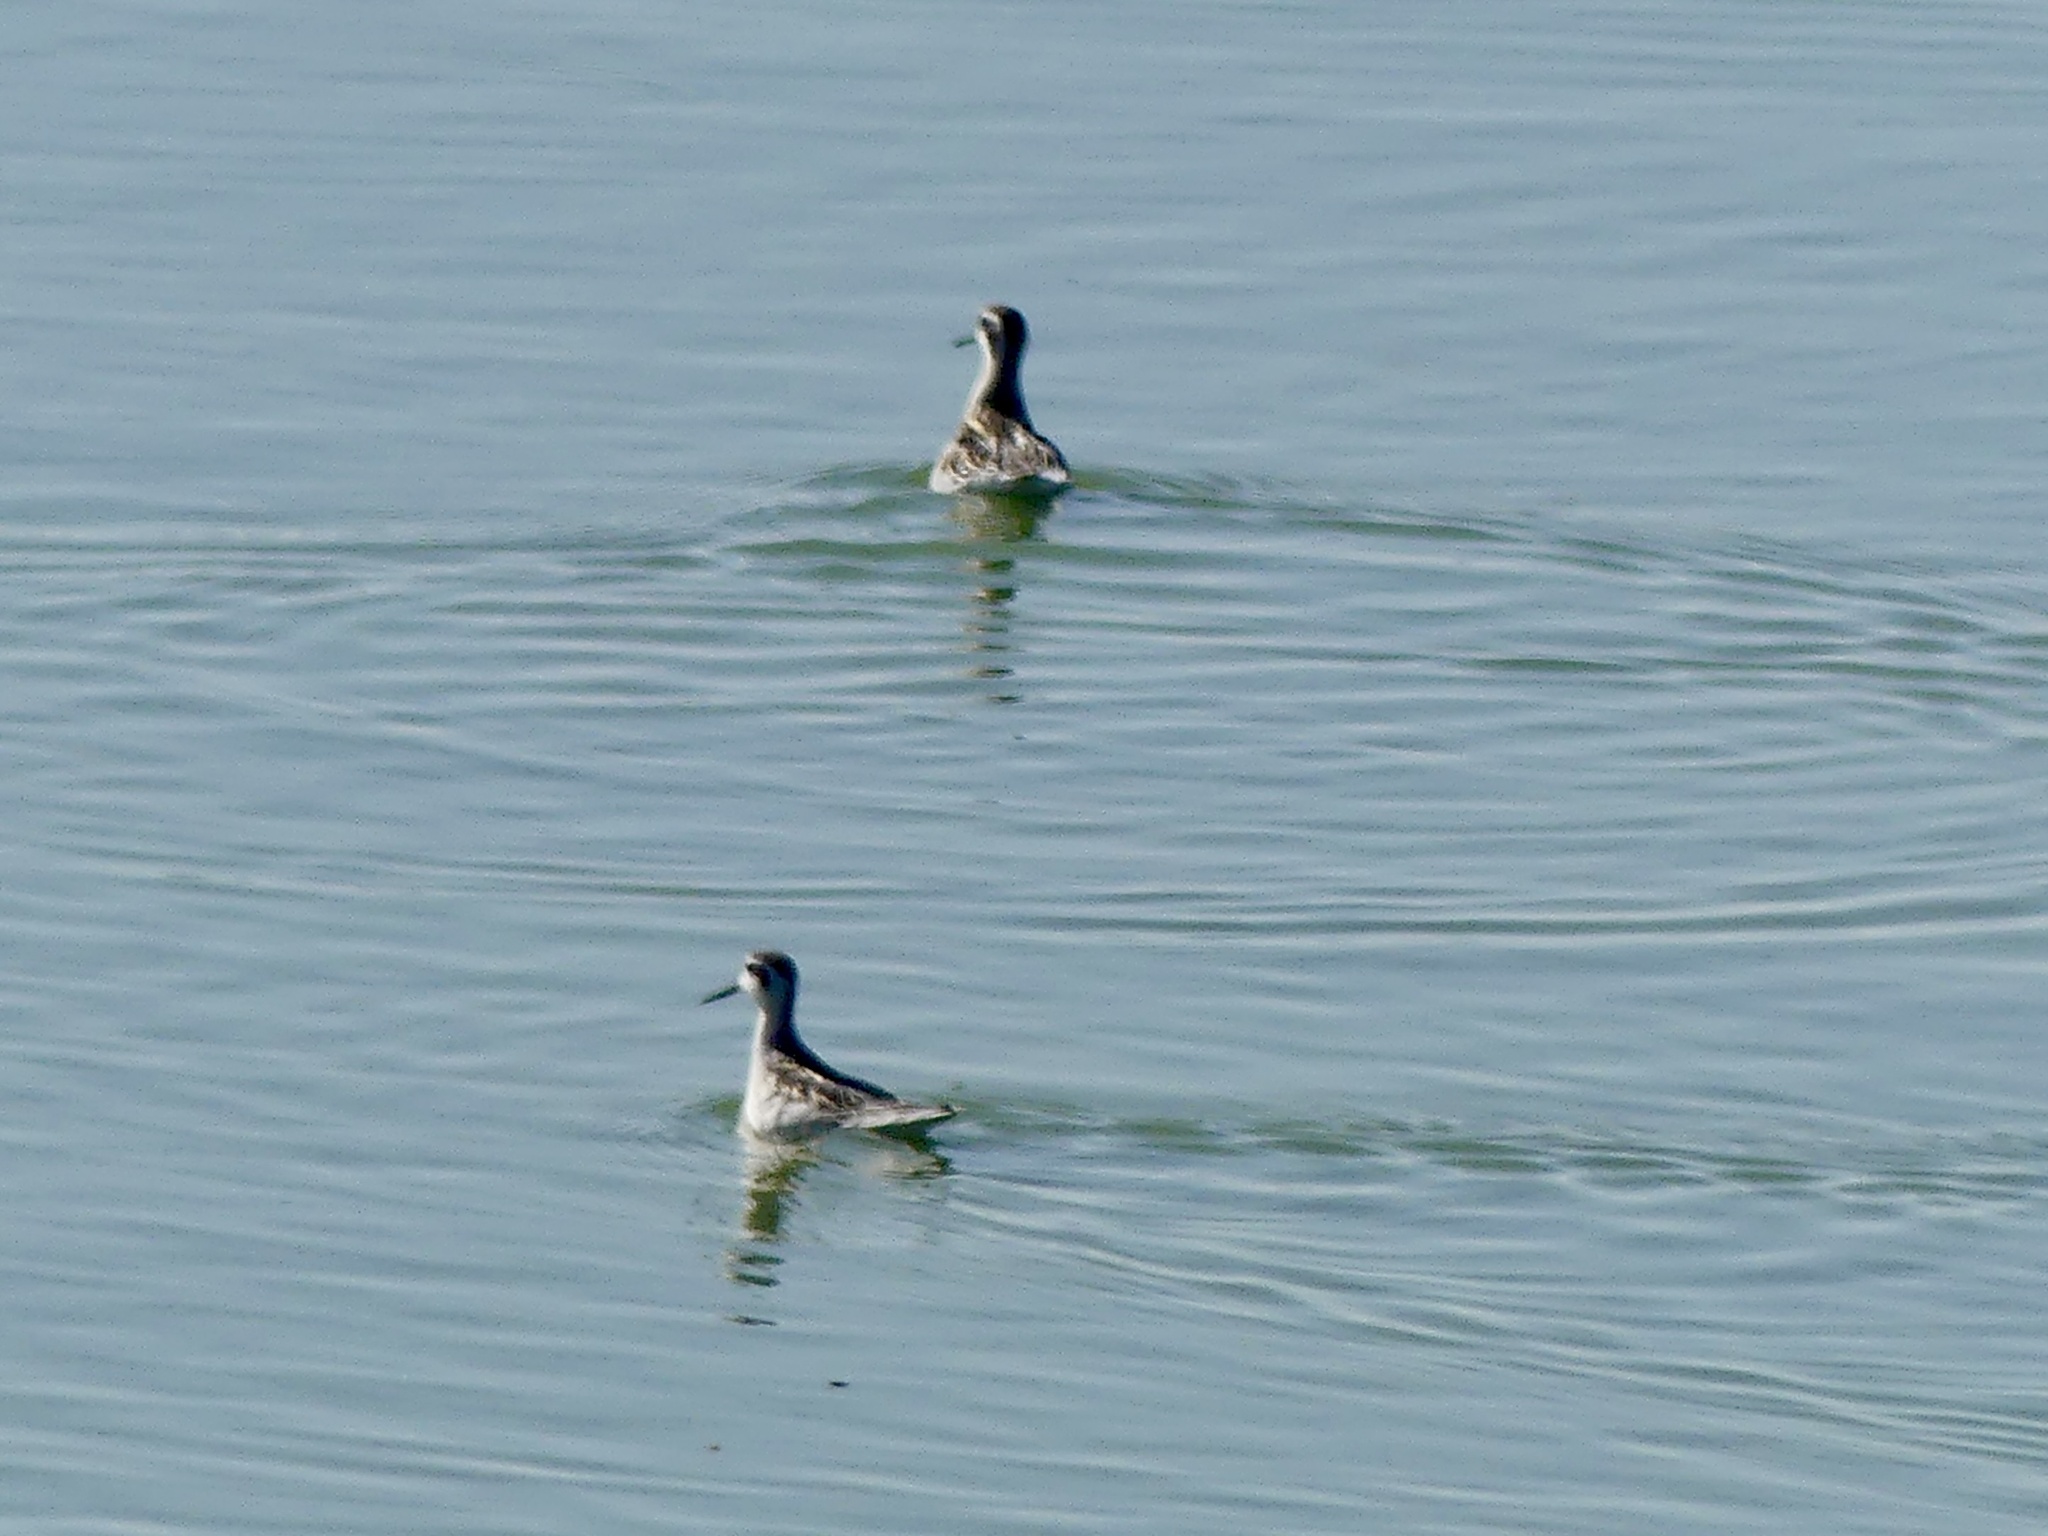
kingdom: Animalia
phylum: Chordata
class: Aves
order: Charadriiformes
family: Scolopacidae
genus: Phalaropus
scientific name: Phalaropus lobatus
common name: Red-necked phalarope
